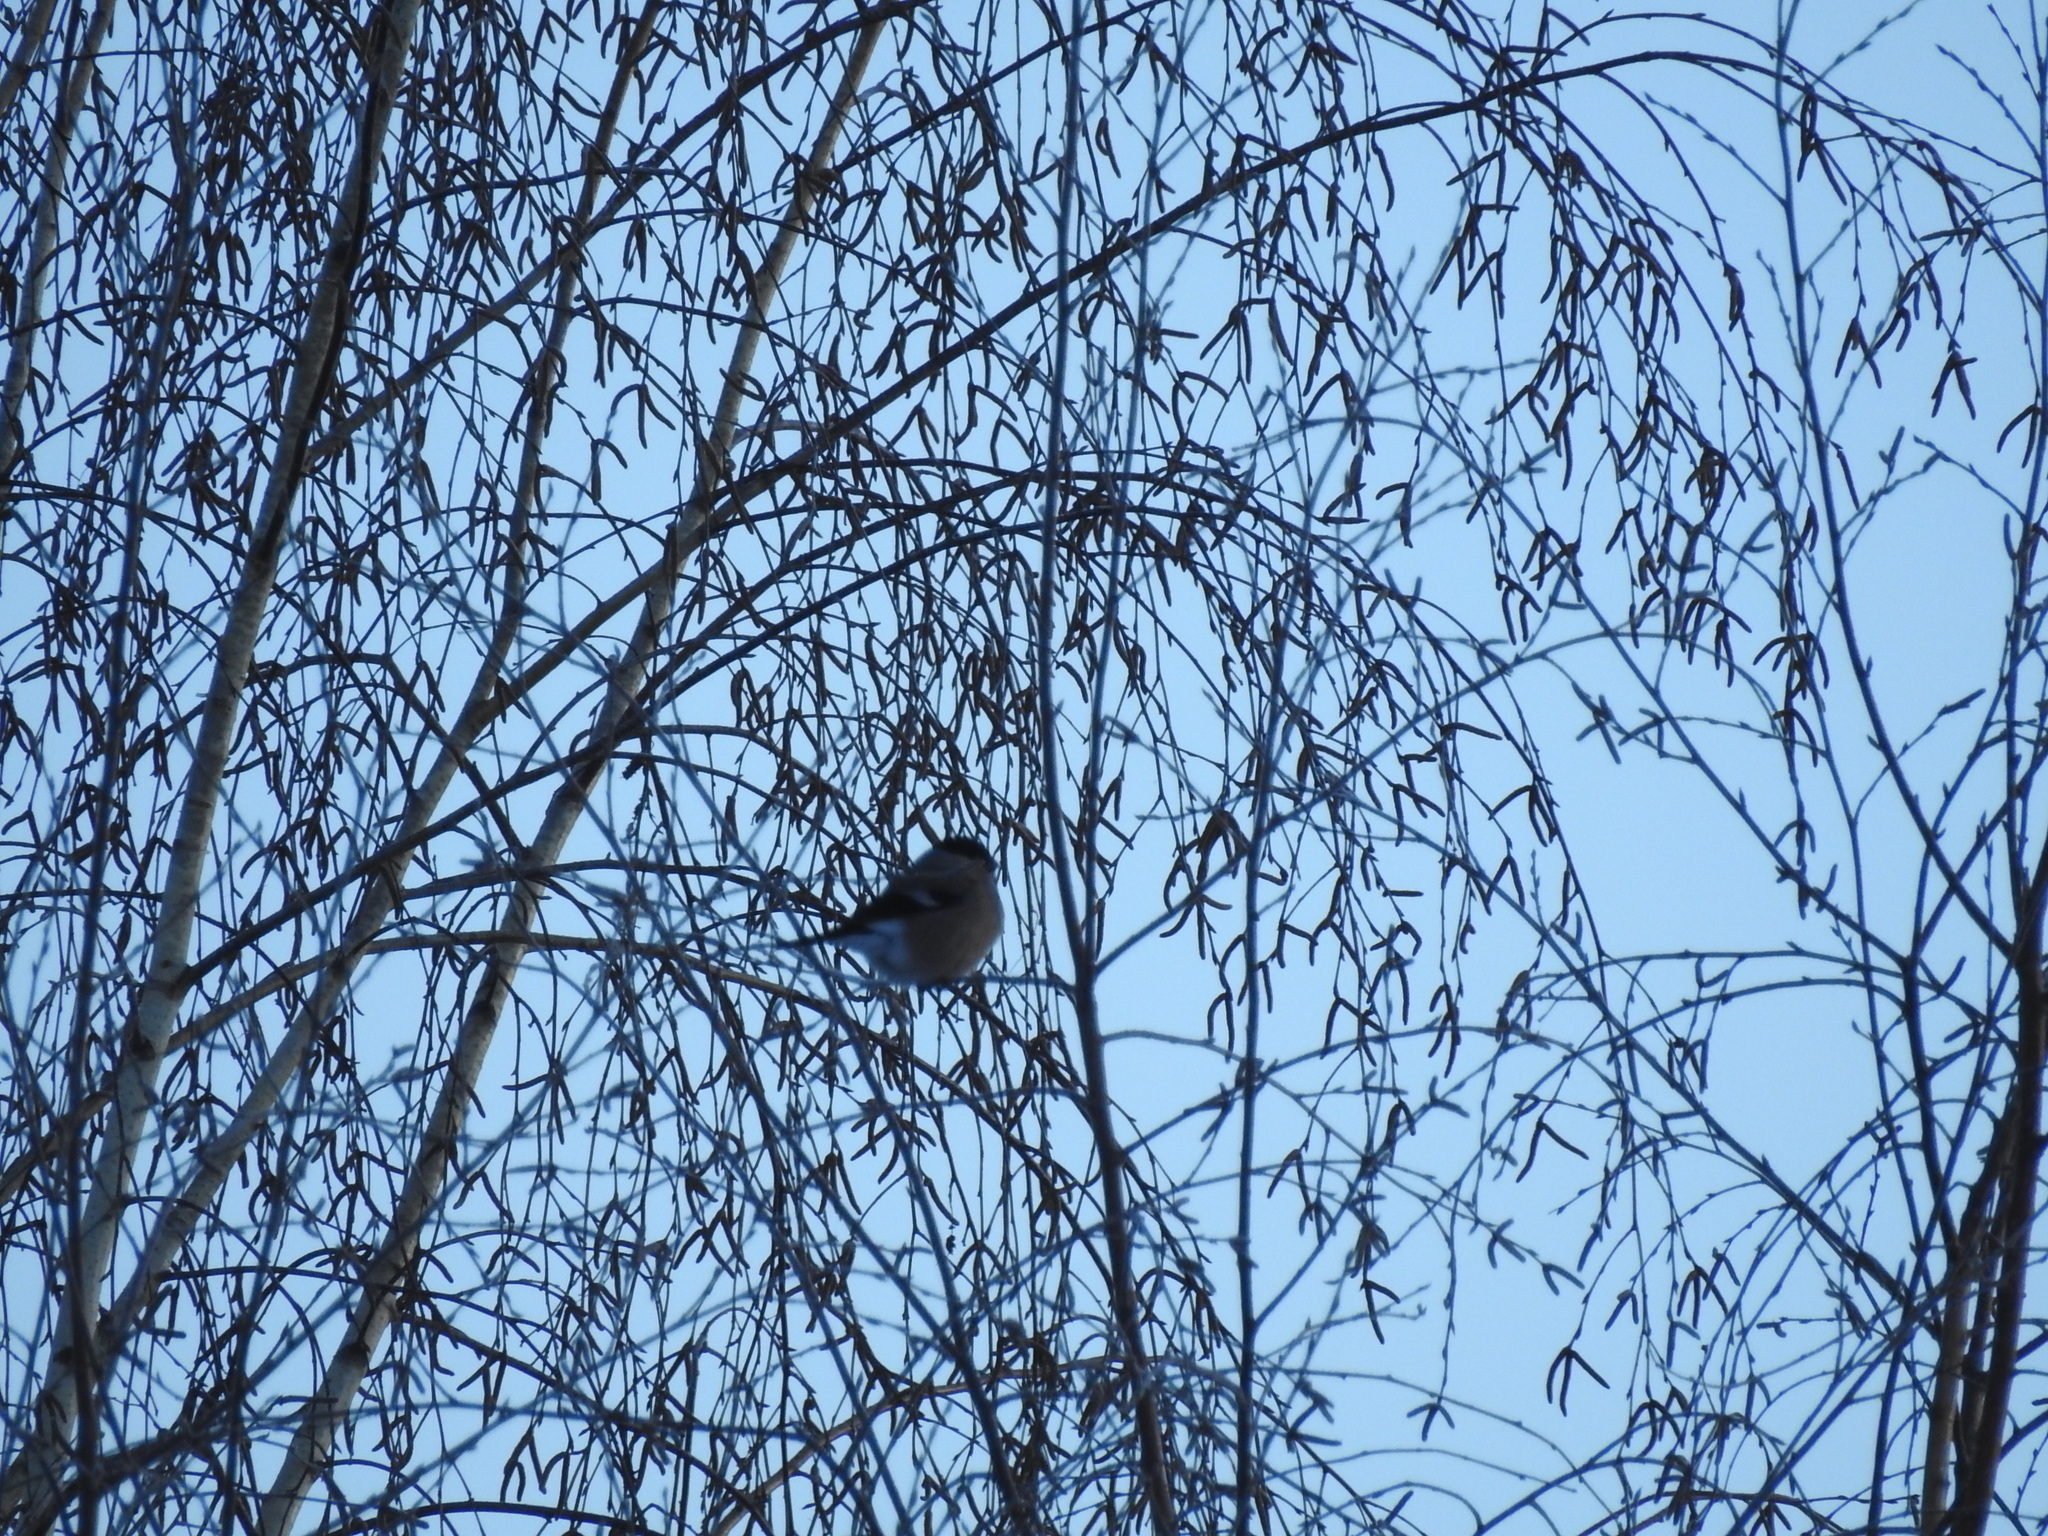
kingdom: Animalia
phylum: Chordata
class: Aves
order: Passeriformes
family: Fringillidae
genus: Pyrrhula
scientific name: Pyrrhula pyrrhula
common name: Eurasian bullfinch
